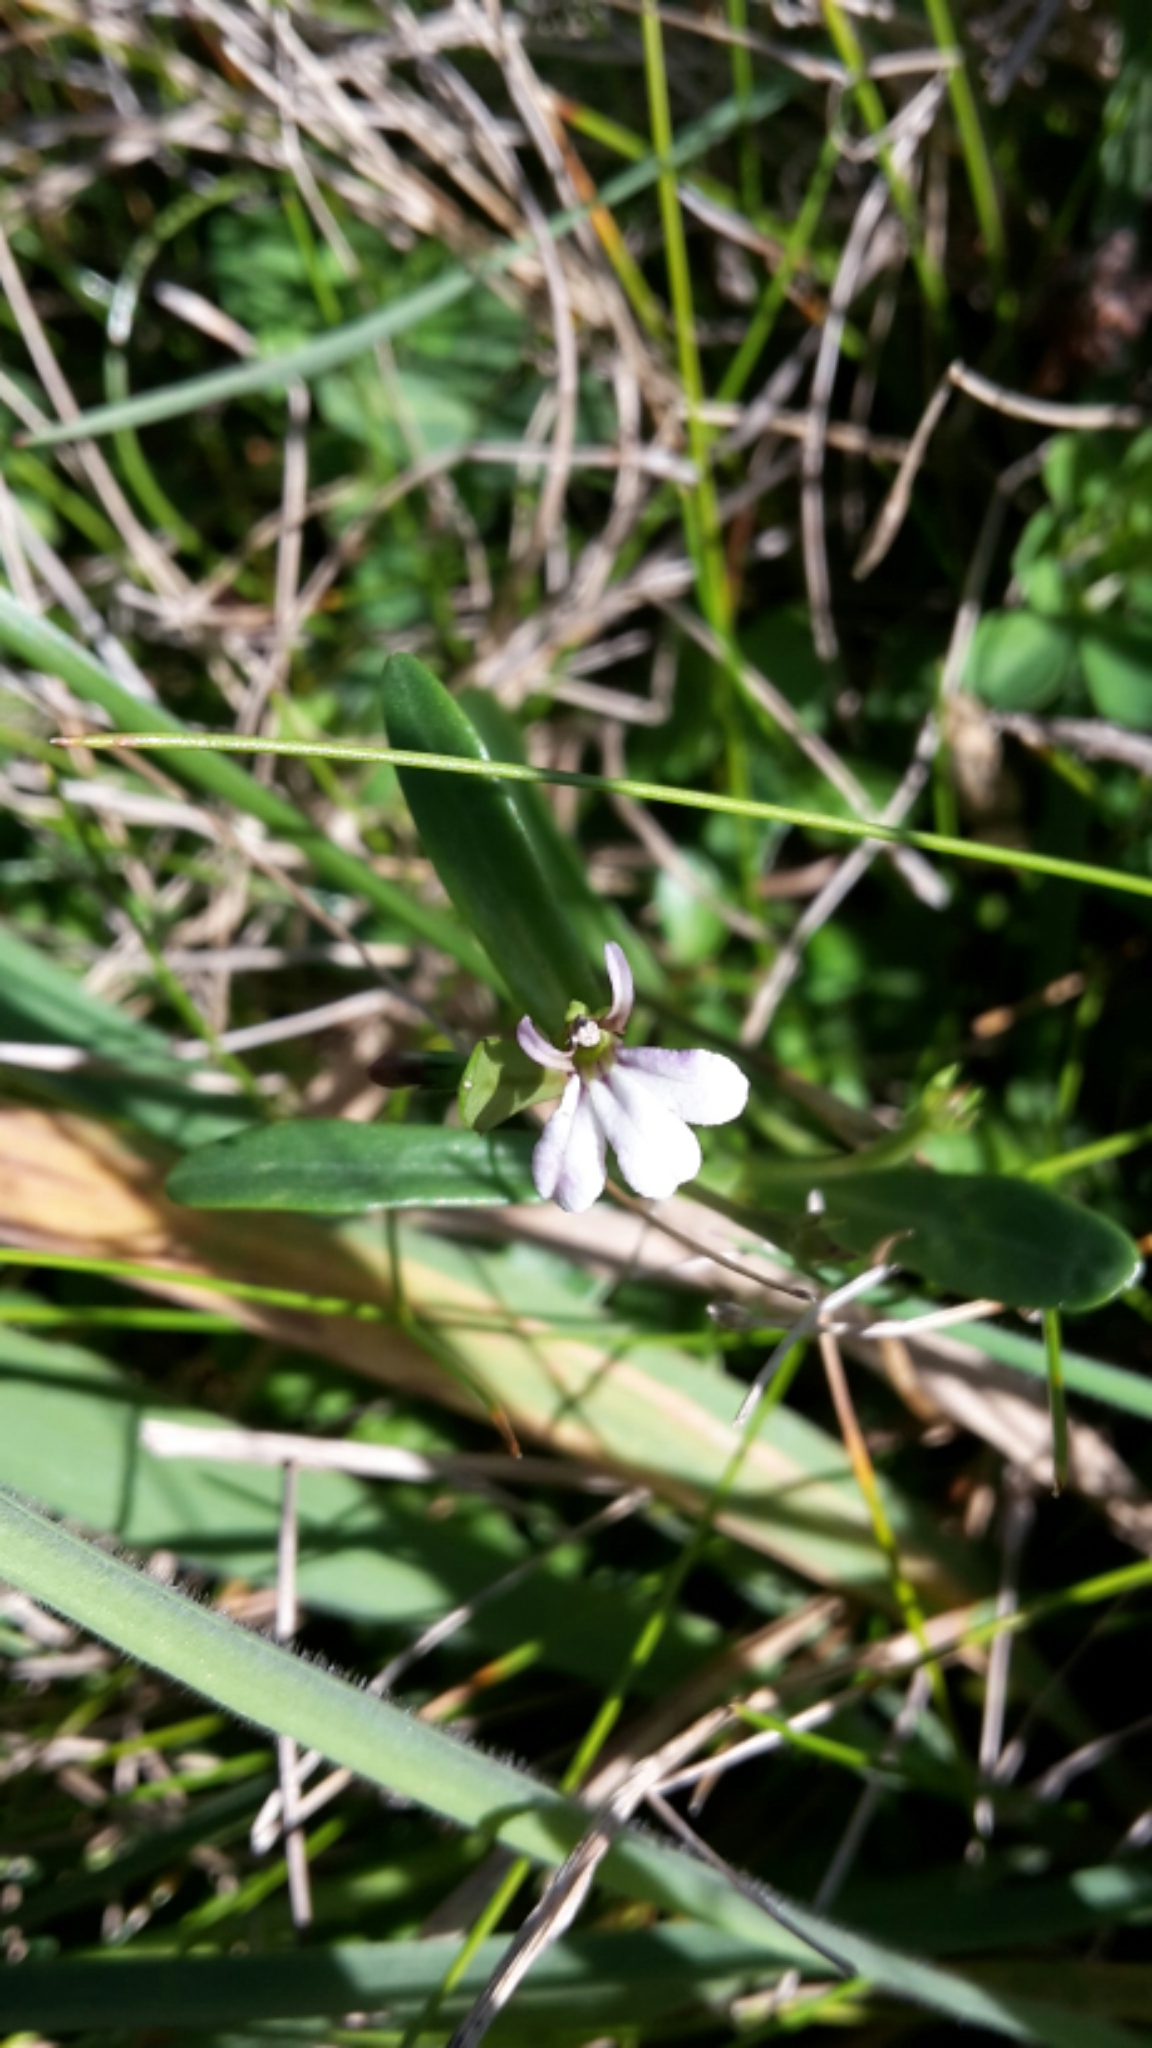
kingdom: Plantae
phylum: Tracheophyta
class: Magnoliopsida
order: Asterales
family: Campanulaceae
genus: Lobelia
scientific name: Lobelia anceps
